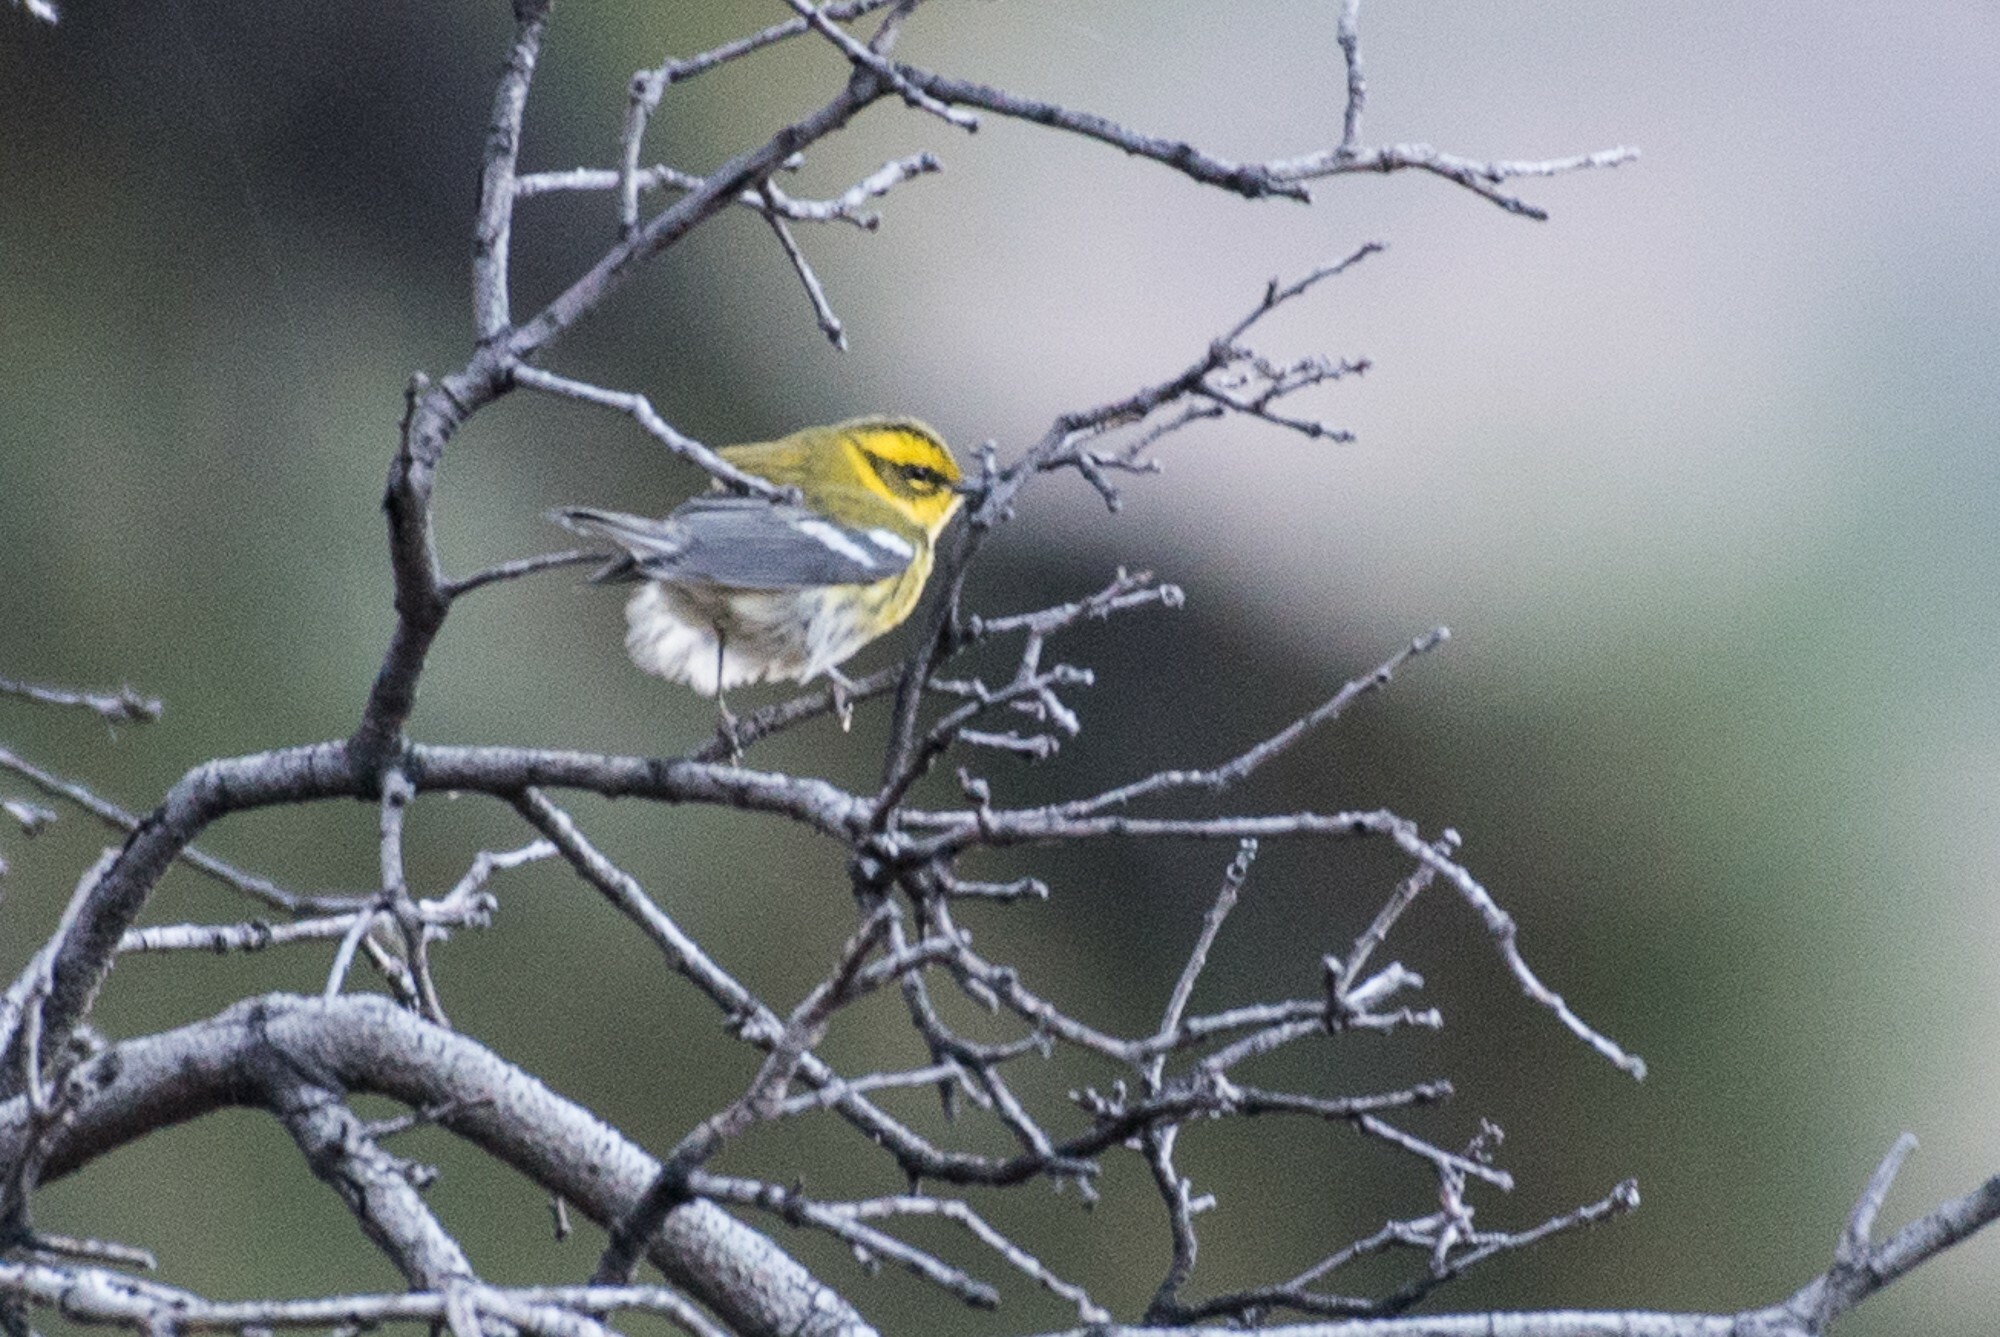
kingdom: Animalia
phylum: Chordata
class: Aves
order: Passeriformes
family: Parulidae
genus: Setophaga
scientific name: Setophaga townsendi
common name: Townsend's warbler
